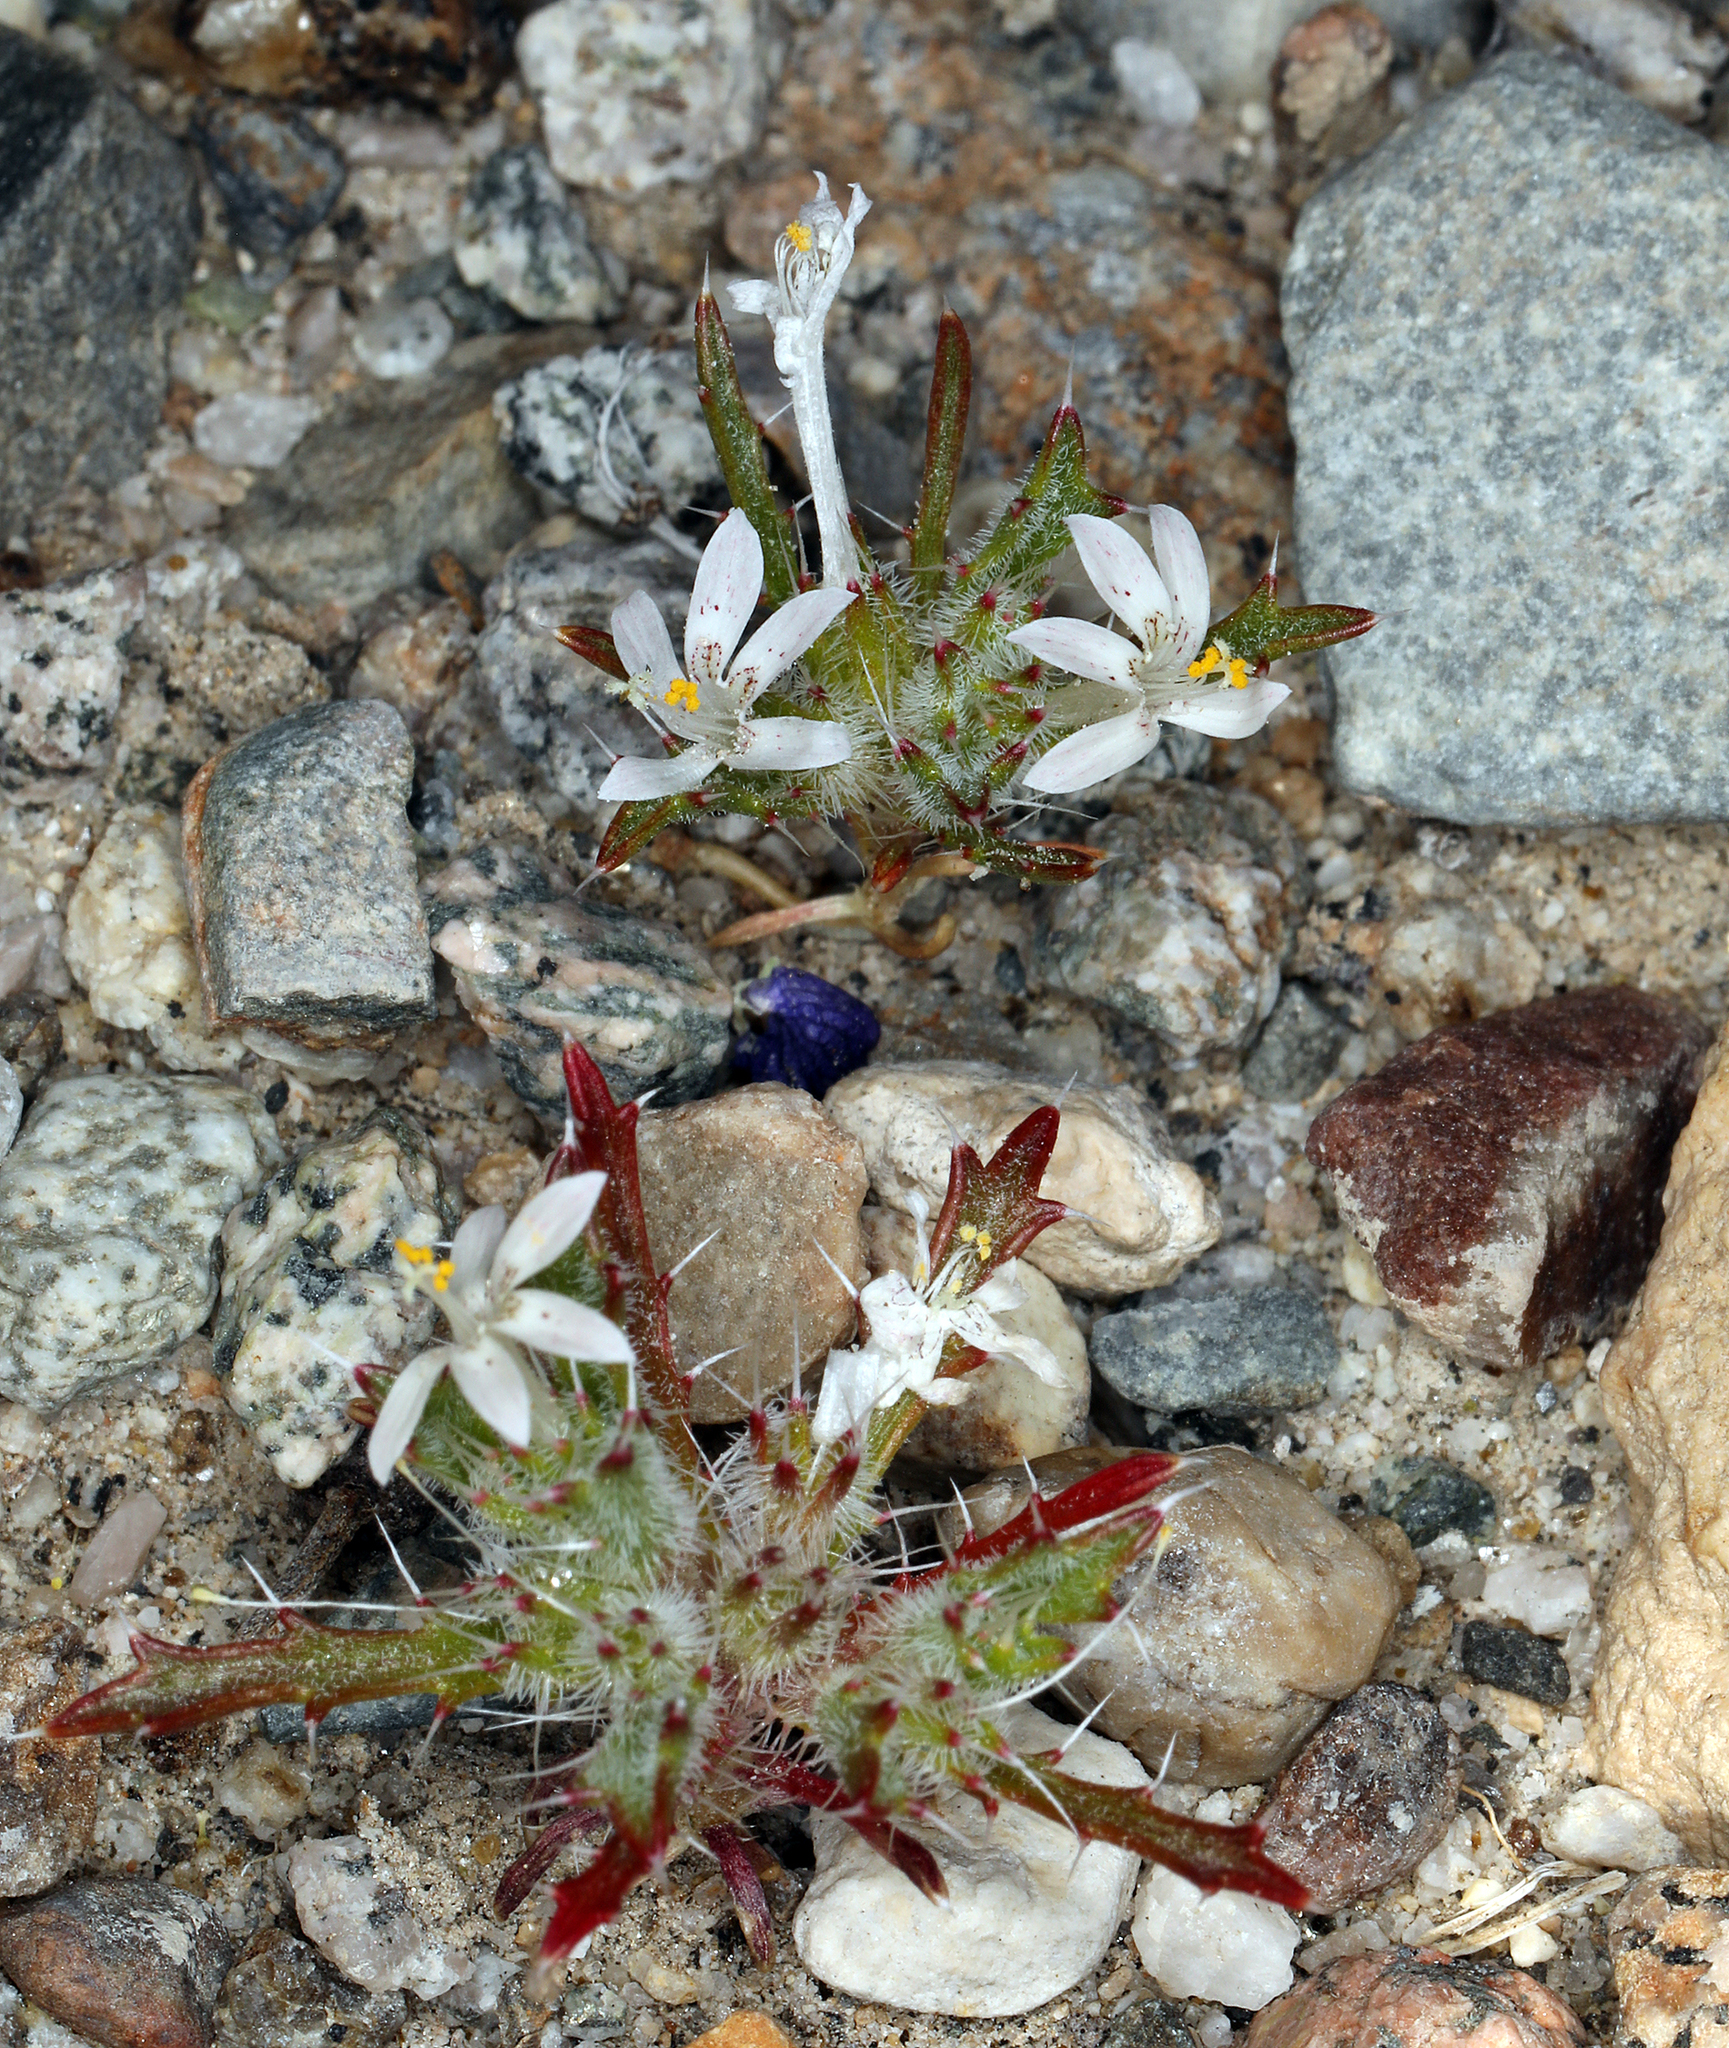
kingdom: Plantae
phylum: Tracheophyta
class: Magnoliopsida
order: Ericales
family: Polemoniaceae
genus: Loeseliastrum
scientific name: Loeseliastrum schottii
